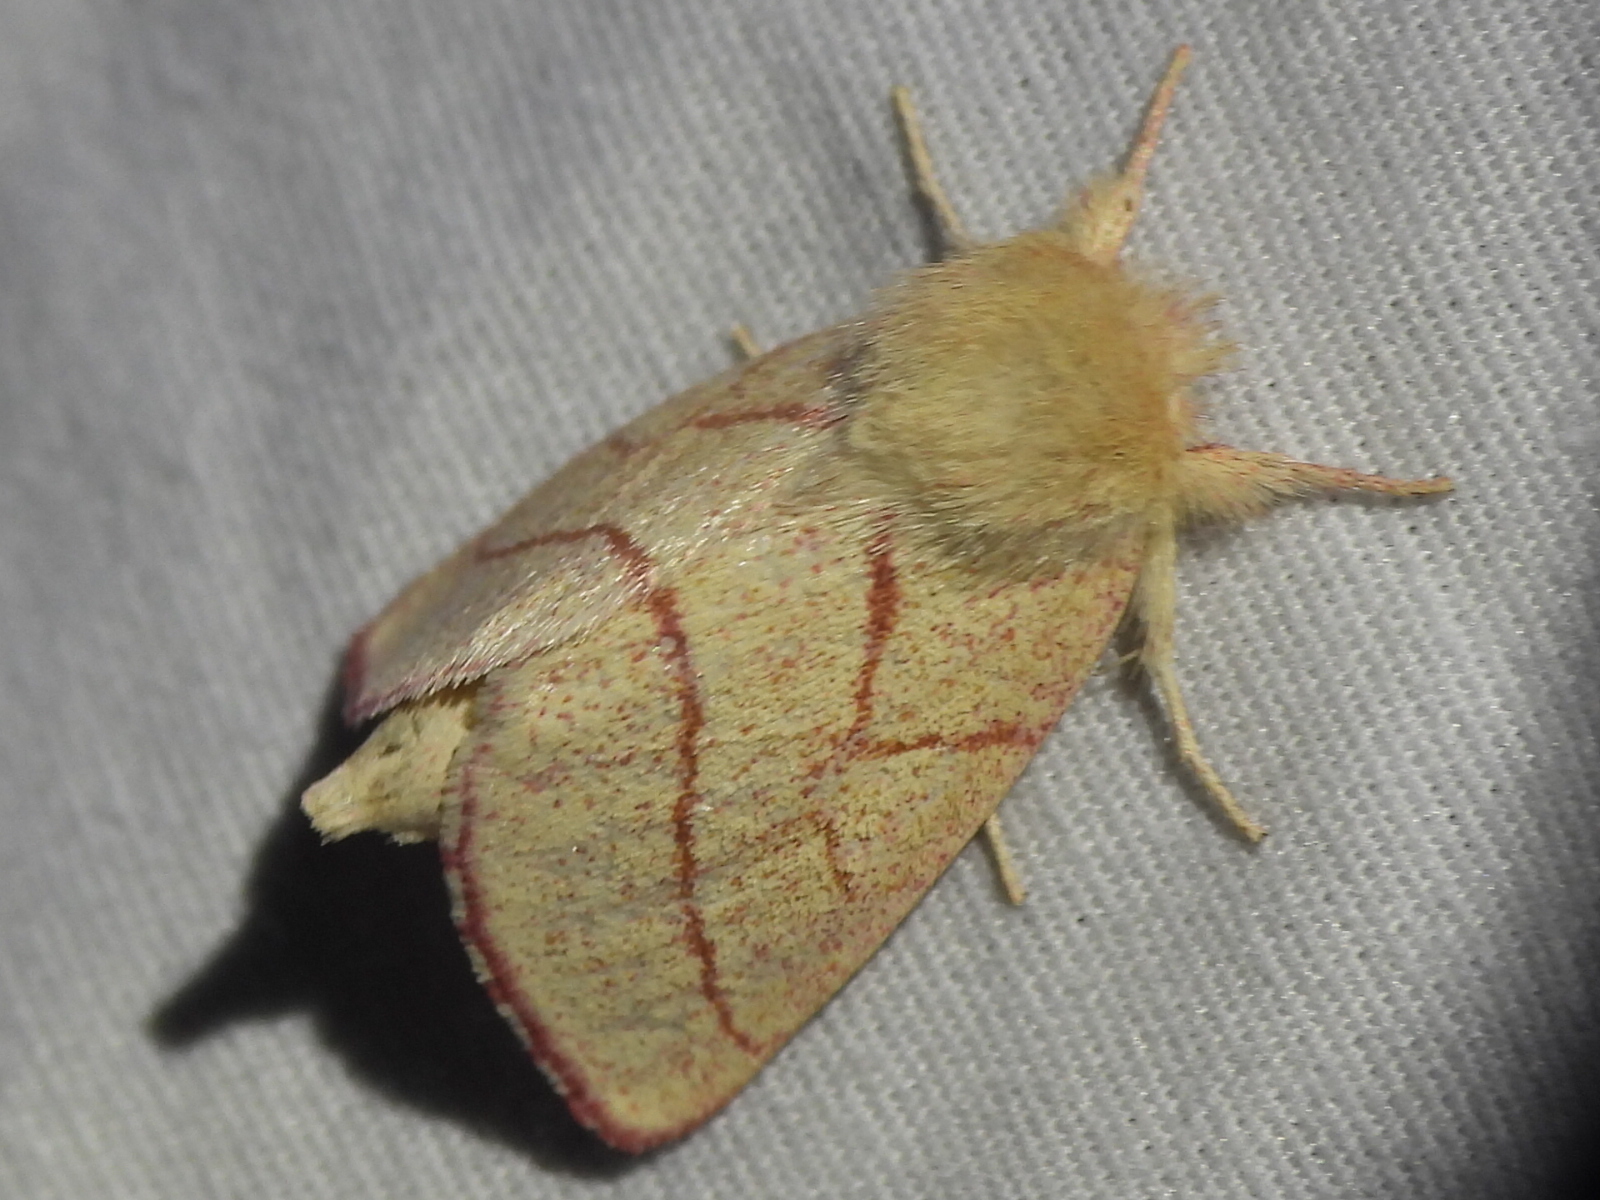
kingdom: Animalia
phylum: Arthropoda
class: Insecta
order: Lepidoptera
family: Notodontidae
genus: Hyparpax
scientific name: Hyparpax aurostriata
